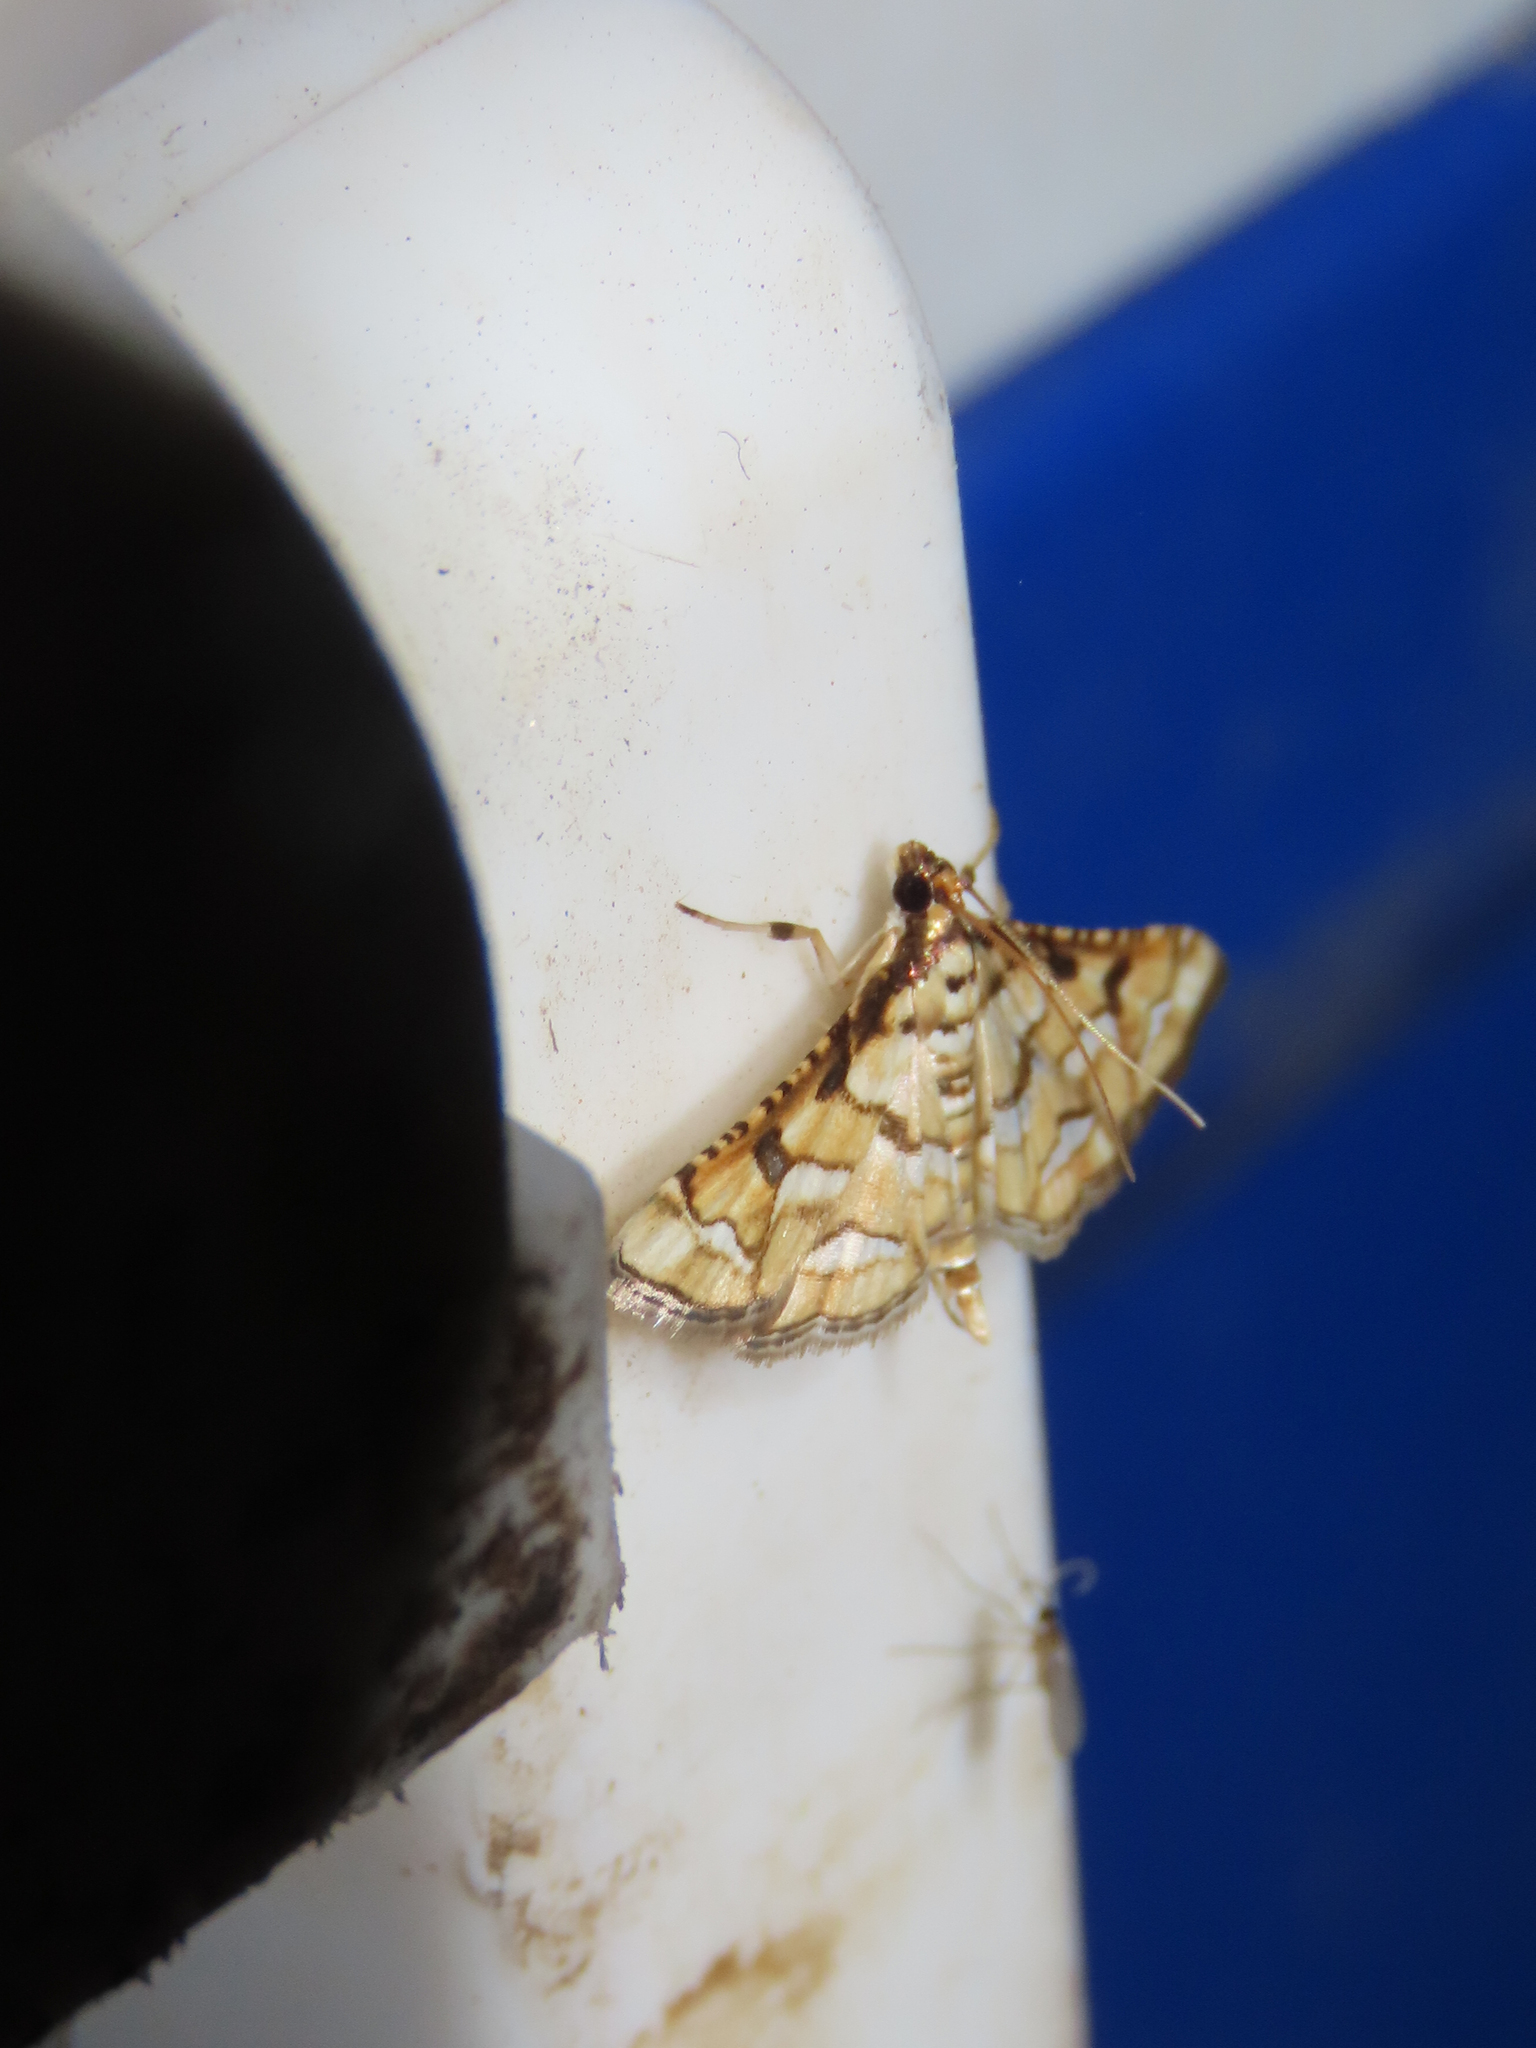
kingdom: Animalia
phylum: Arthropoda
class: Insecta
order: Lepidoptera
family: Crambidae
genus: Hileithia
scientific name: Hileithia magualis
